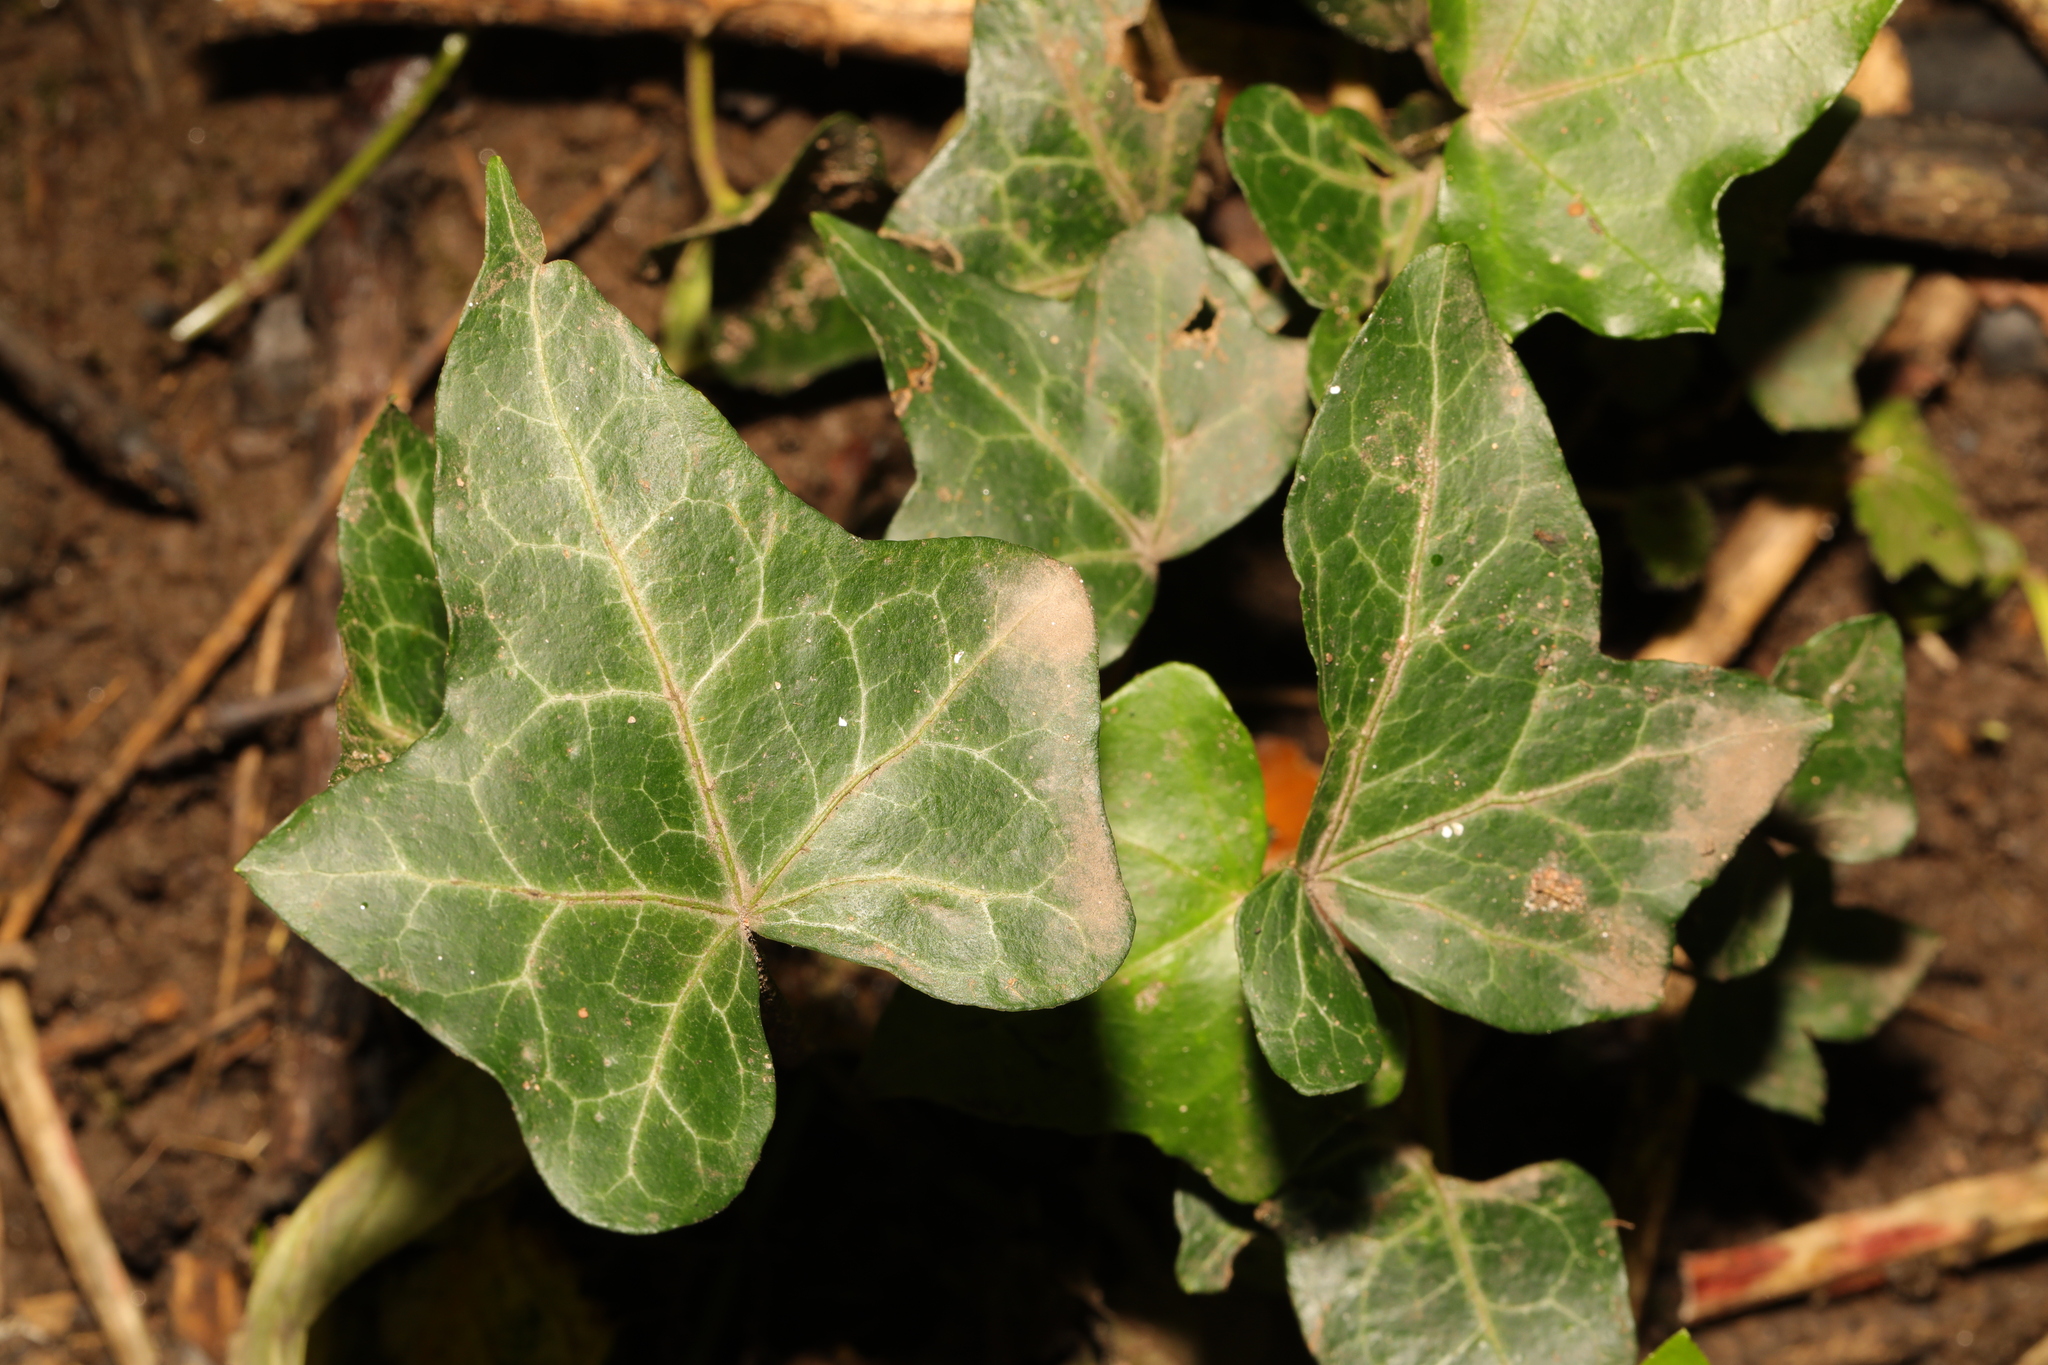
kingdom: Plantae
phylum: Tracheophyta
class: Magnoliopsida
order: Apiales
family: Araliaceae
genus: Hedera
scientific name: Hedera helix
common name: Ivy
